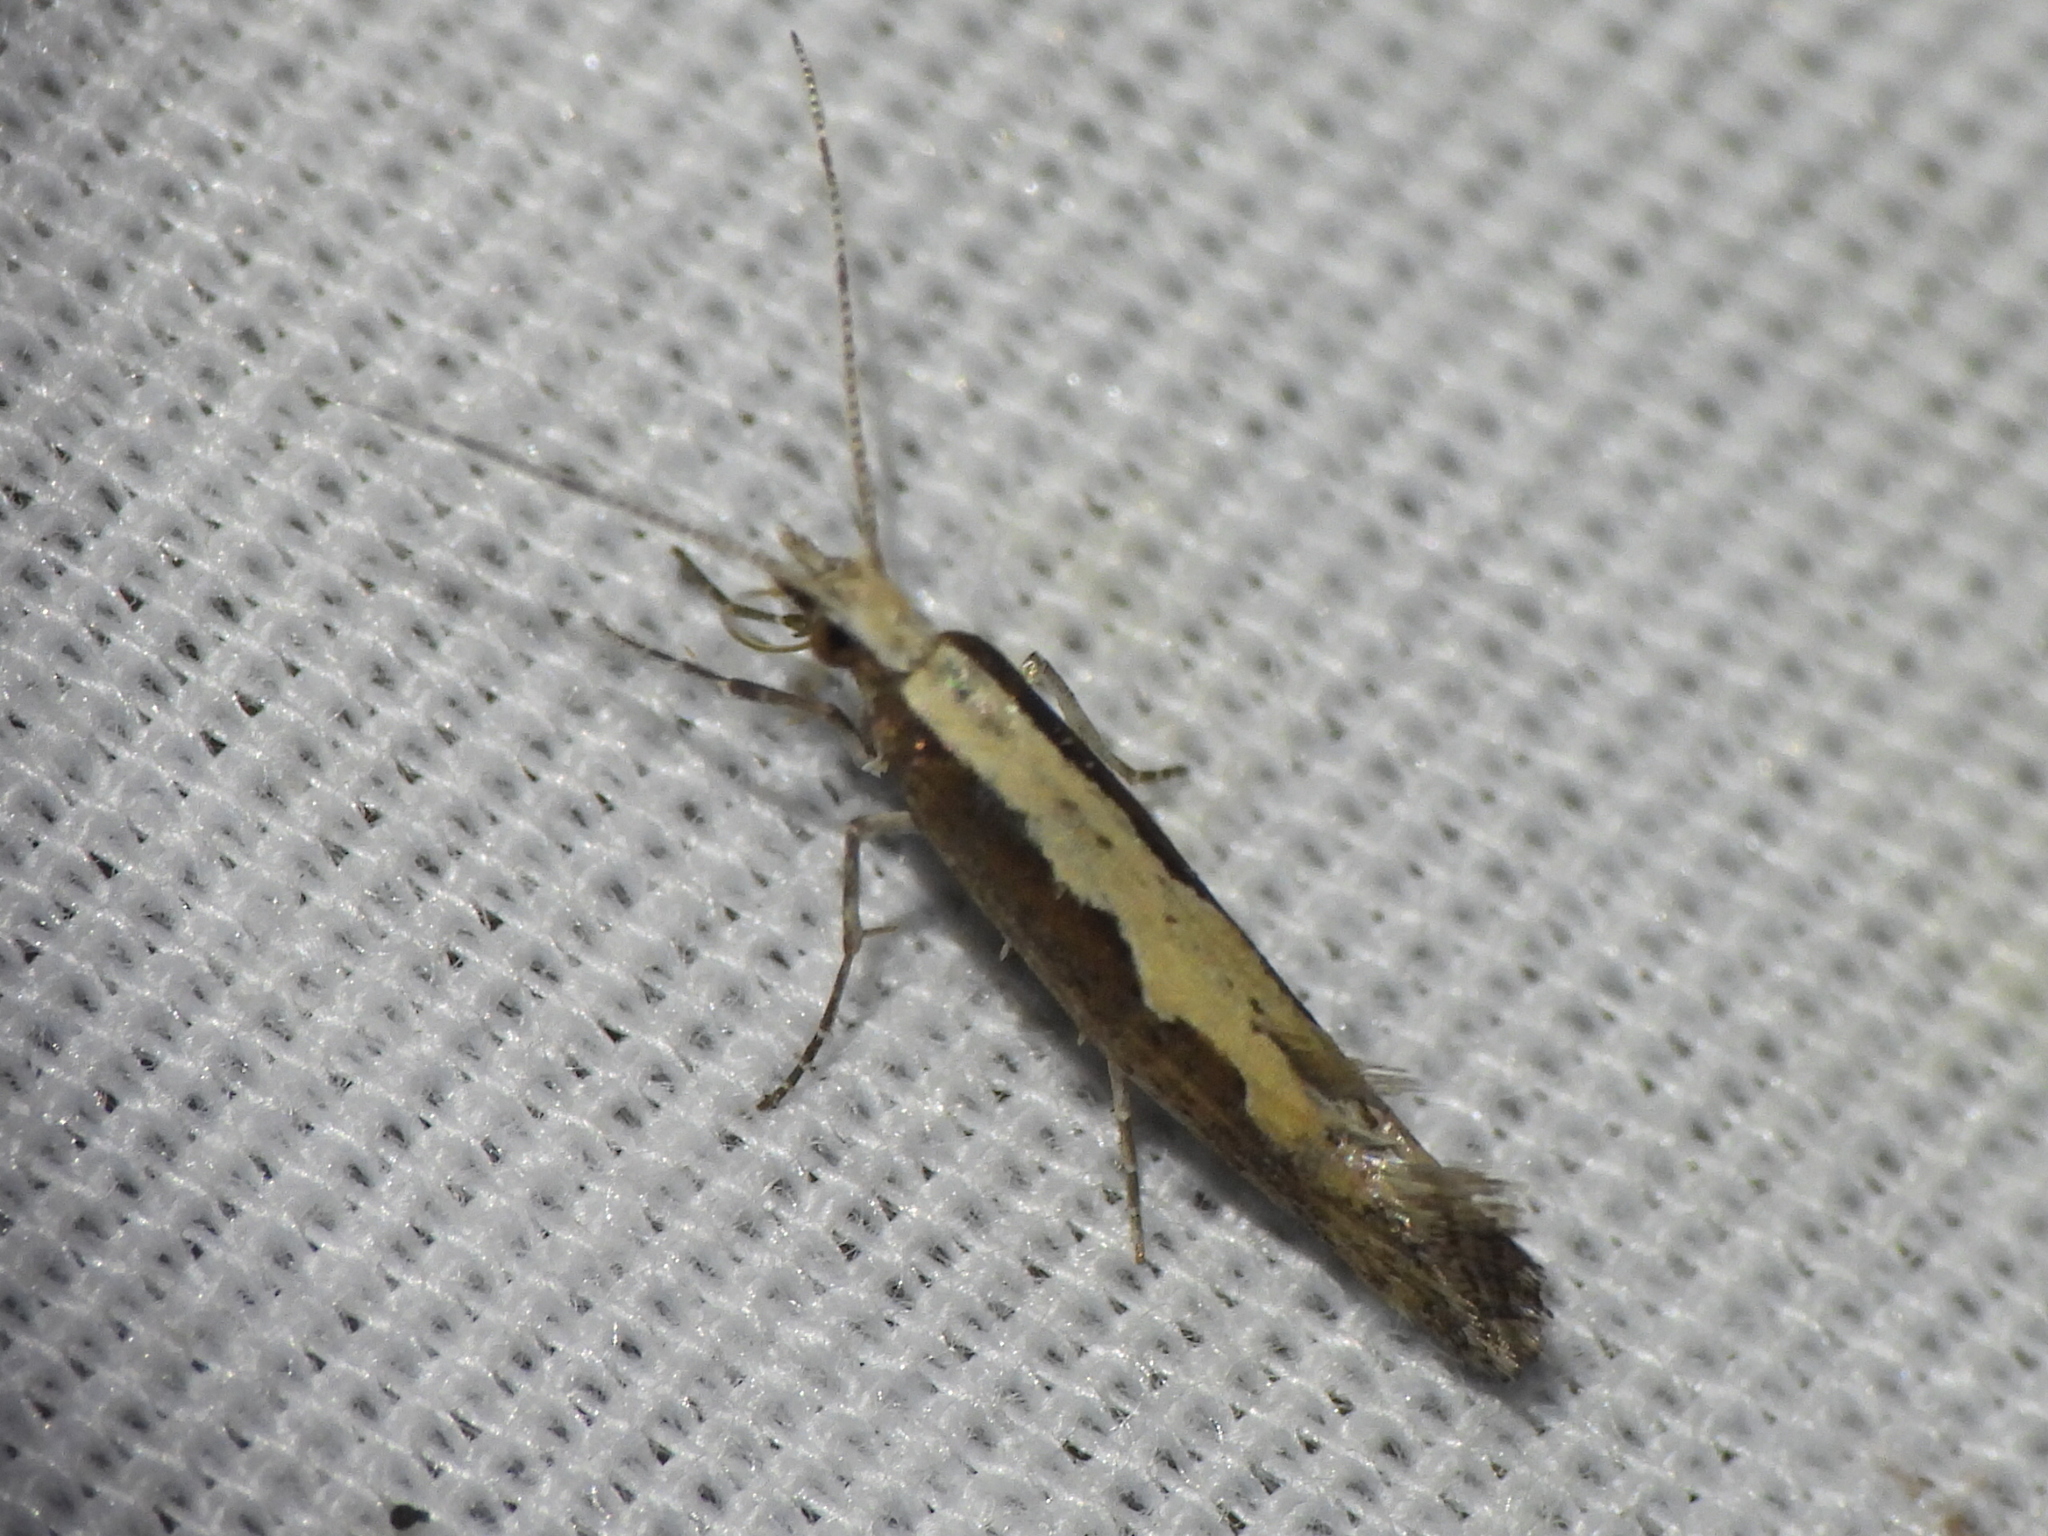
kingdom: Animalia
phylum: Arthropoda
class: Insecta
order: Lepidoptera
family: Plutellidae
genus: Plutella
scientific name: Plutella xylostella
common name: Diamond-back moth
